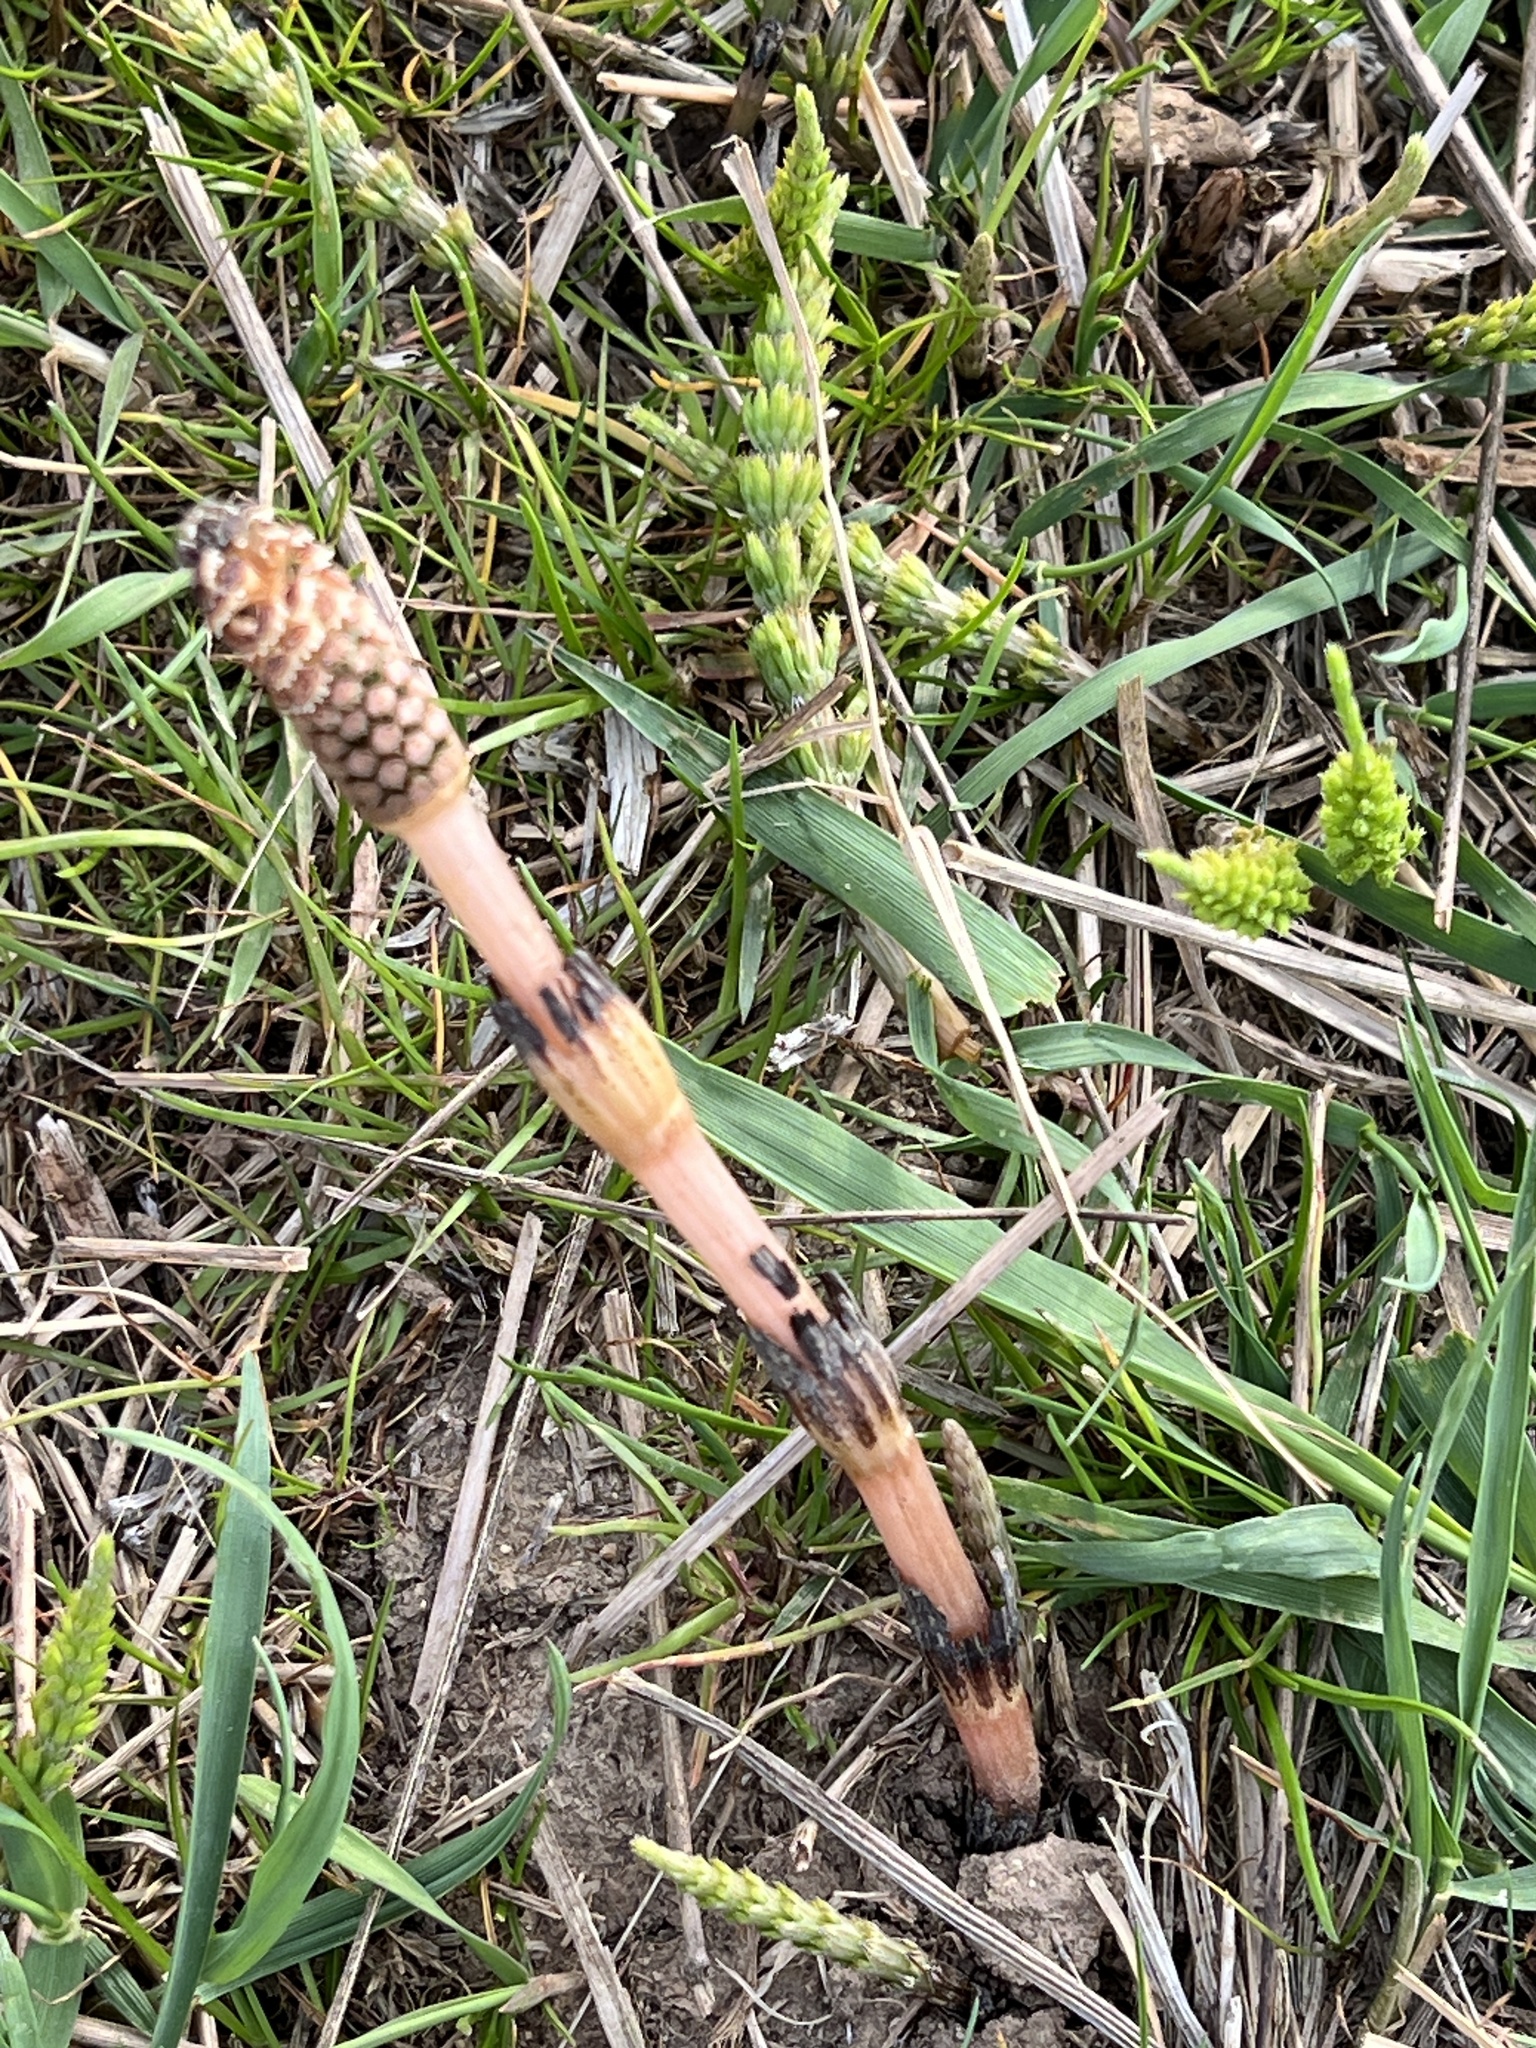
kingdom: Plantae
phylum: Tracheophyta
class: Polypodiopsida
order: Equisetales
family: Equisetaceae
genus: Equisetum
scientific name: Equisetum arvense
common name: Field horsetail
